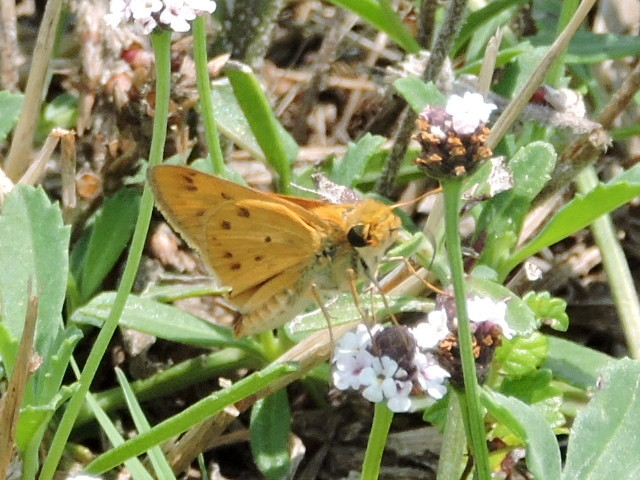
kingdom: Animalia
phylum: Arthropoda
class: Insecta
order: Lepidoptera
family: Hesperiidae
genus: Hylephila
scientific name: Hylephila phyleus
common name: Fiery skipper
